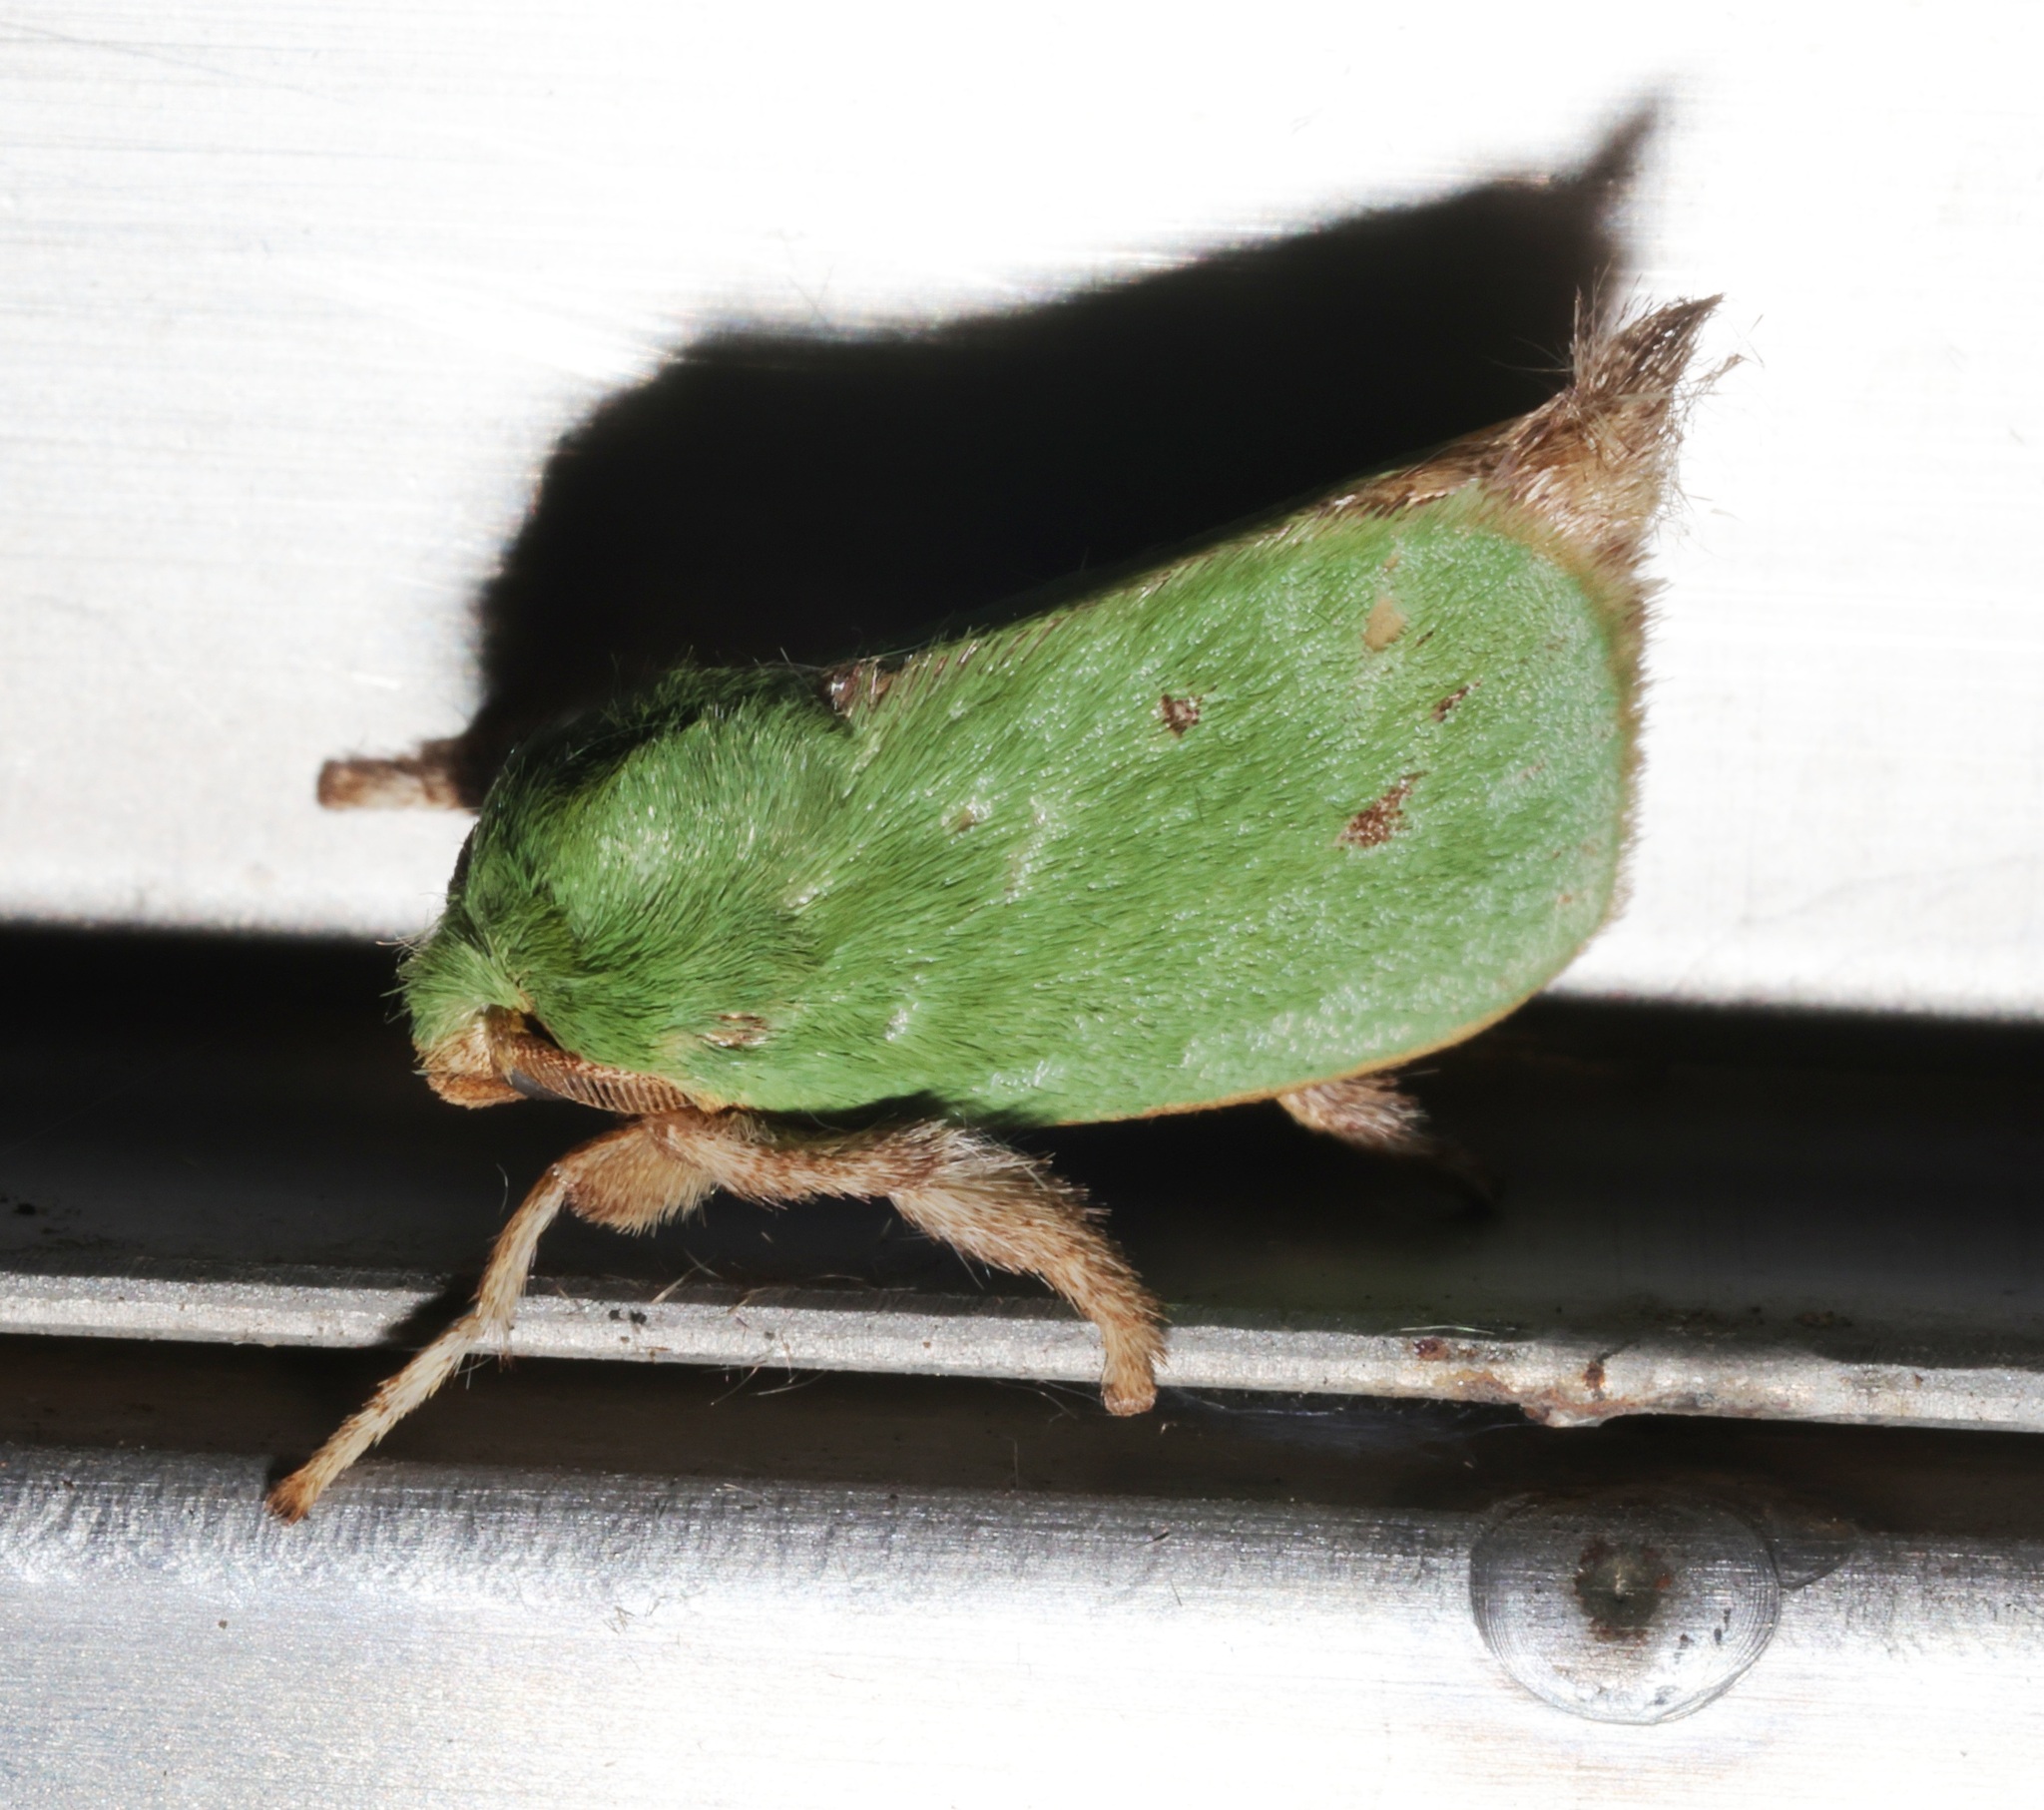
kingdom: Animalia
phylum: Arthropoda
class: Insecta
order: Lepidoptera
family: Limacodidae
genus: Thespea
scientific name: Thespea virescens
